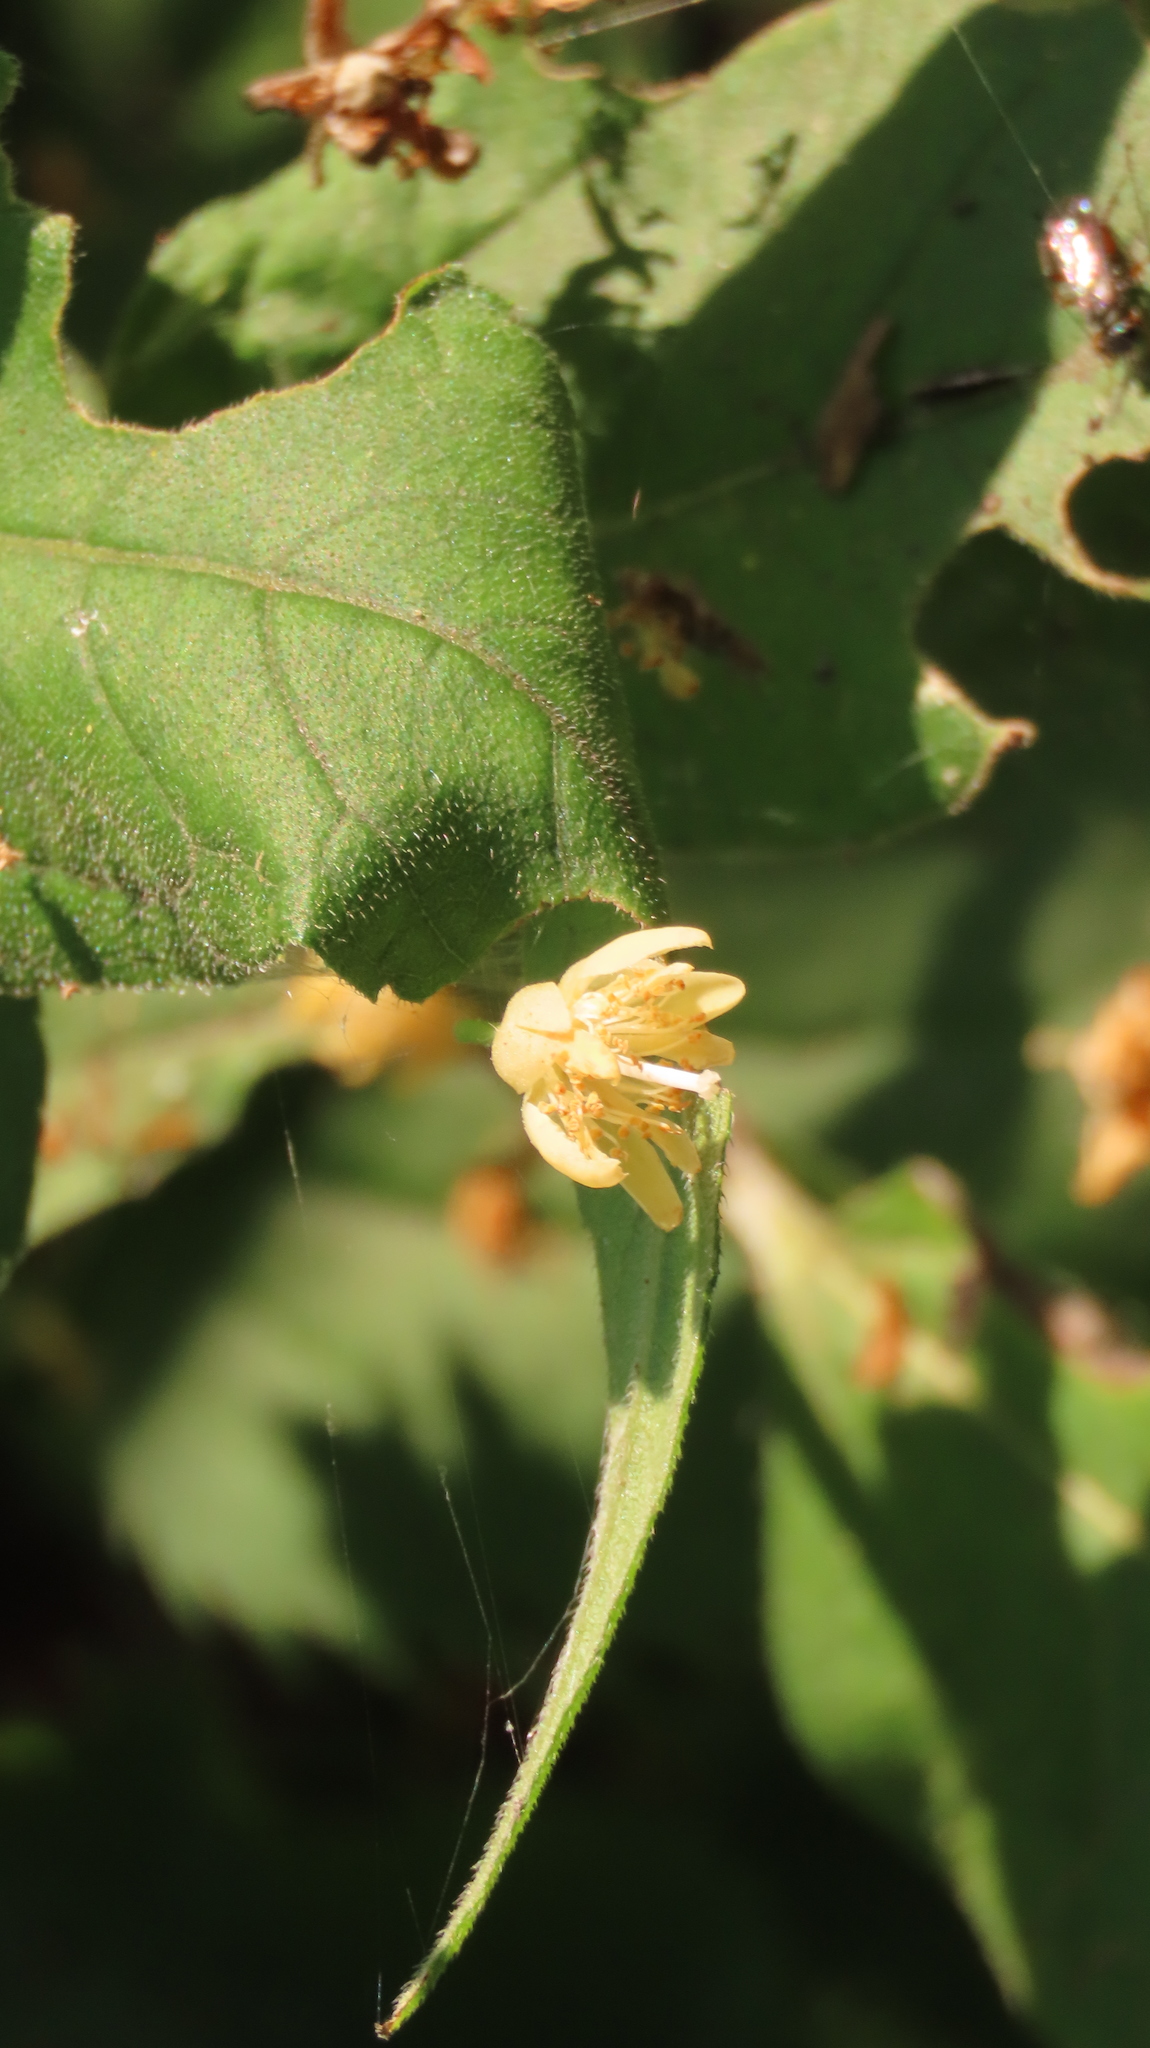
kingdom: Plantae
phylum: Tracheophyta
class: Magnoliopsida
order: Malvales
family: Malvaceae
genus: Tilia
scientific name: Tilia americana
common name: Basswood
